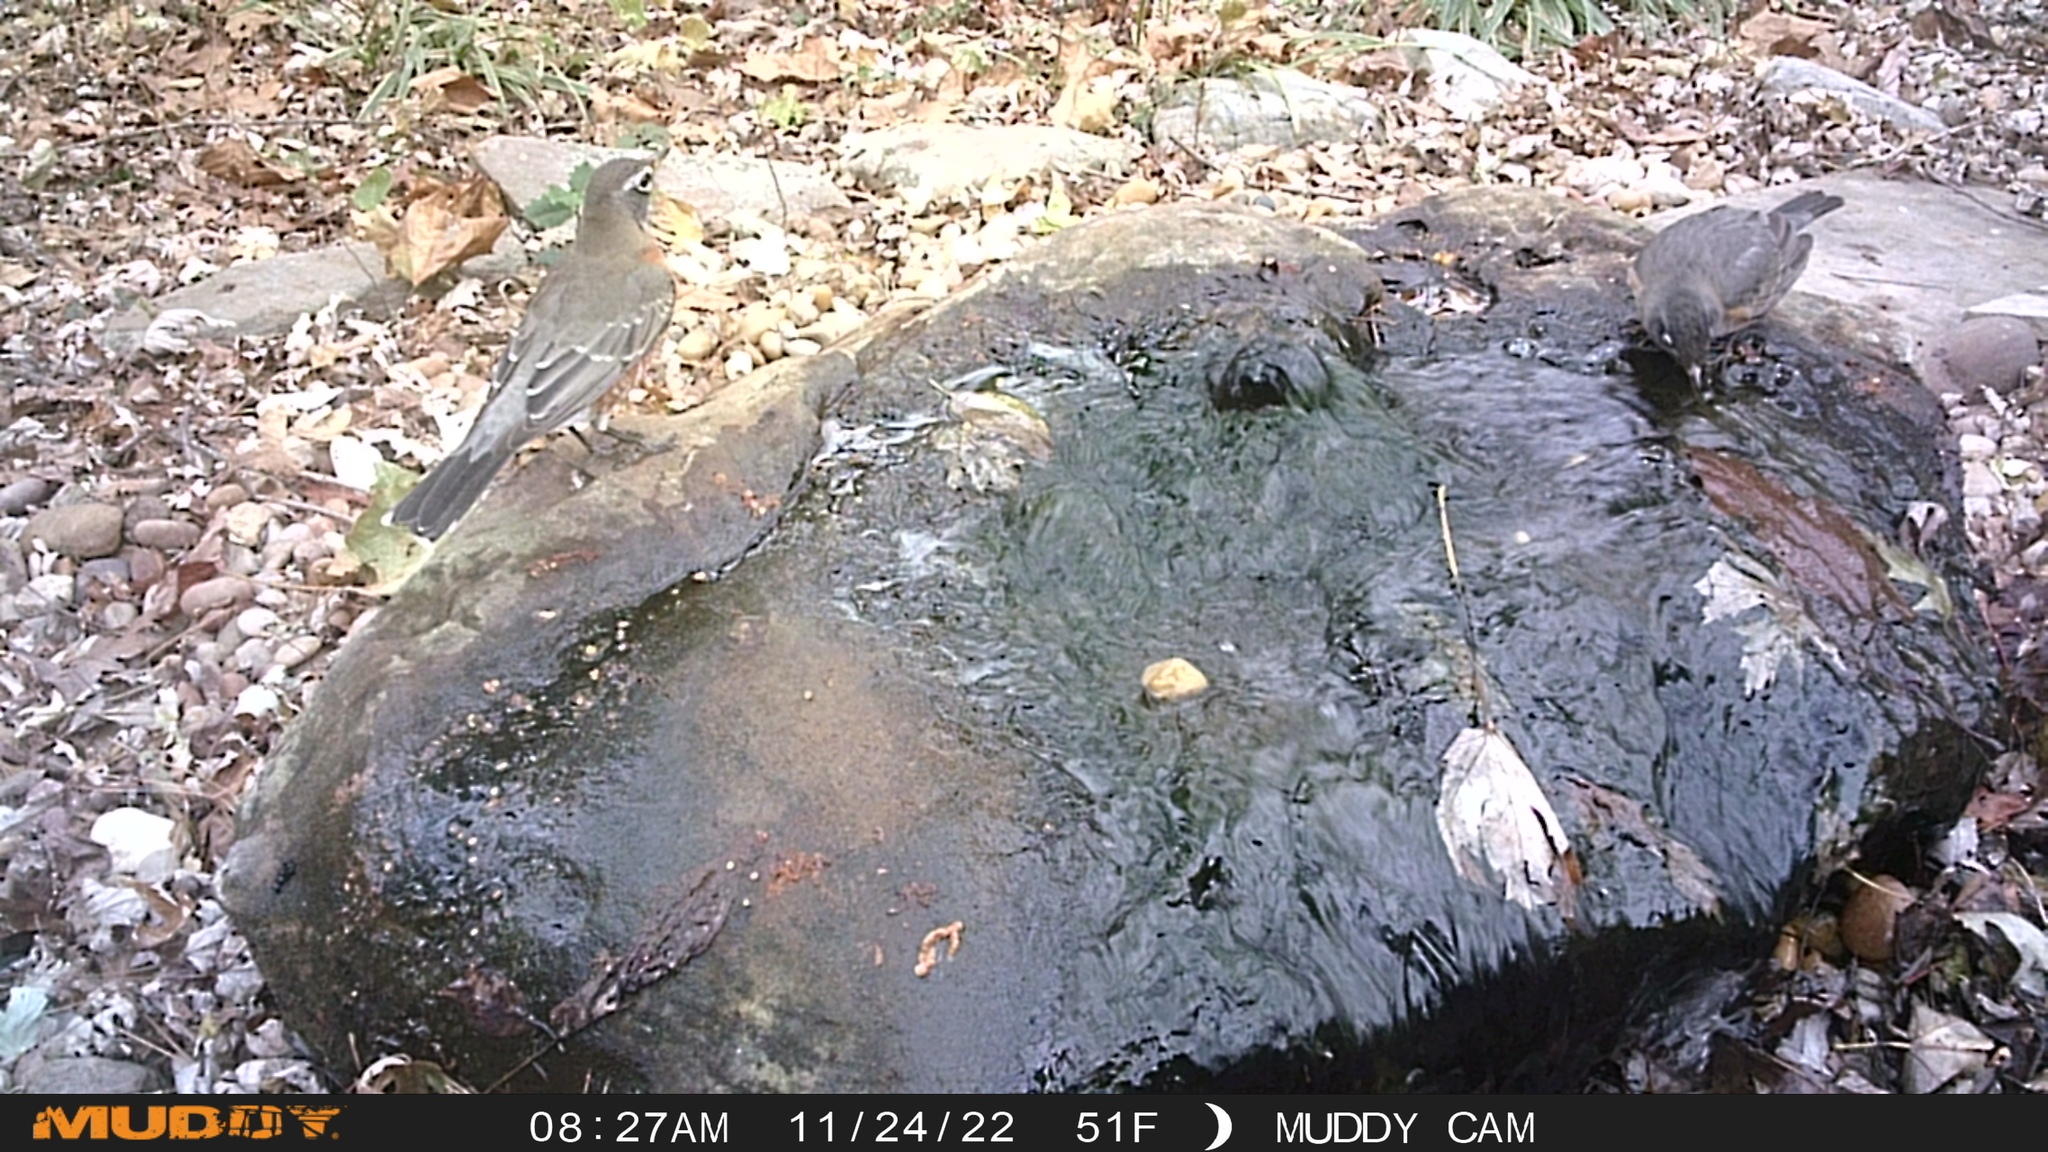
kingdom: Animalia
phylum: Chordata
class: Aves
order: Passeriformes
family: Turdidae
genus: Turdus
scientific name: Turdus migratorius
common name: American robin
